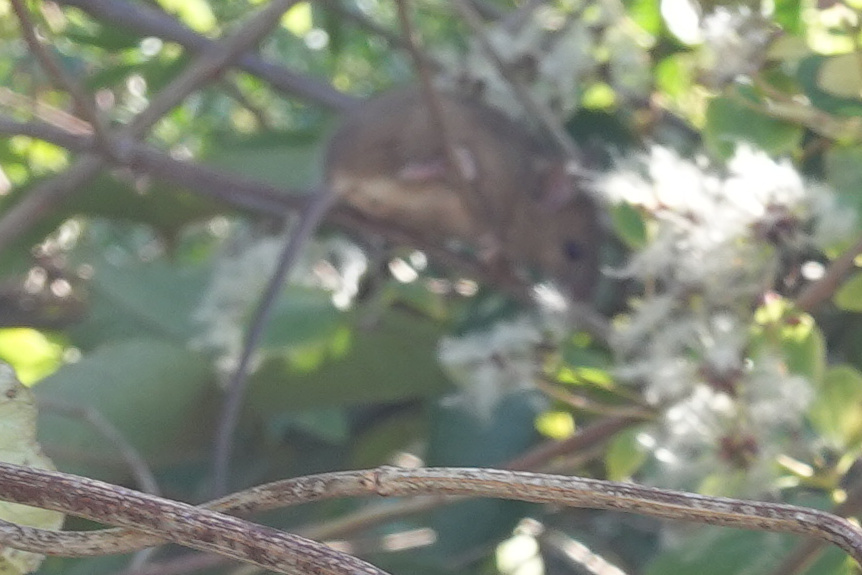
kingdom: Animalia
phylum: Chordata
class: Mammalia
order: Rodentia
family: Muridae
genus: Mus
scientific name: Mus musculus
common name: House mouse
